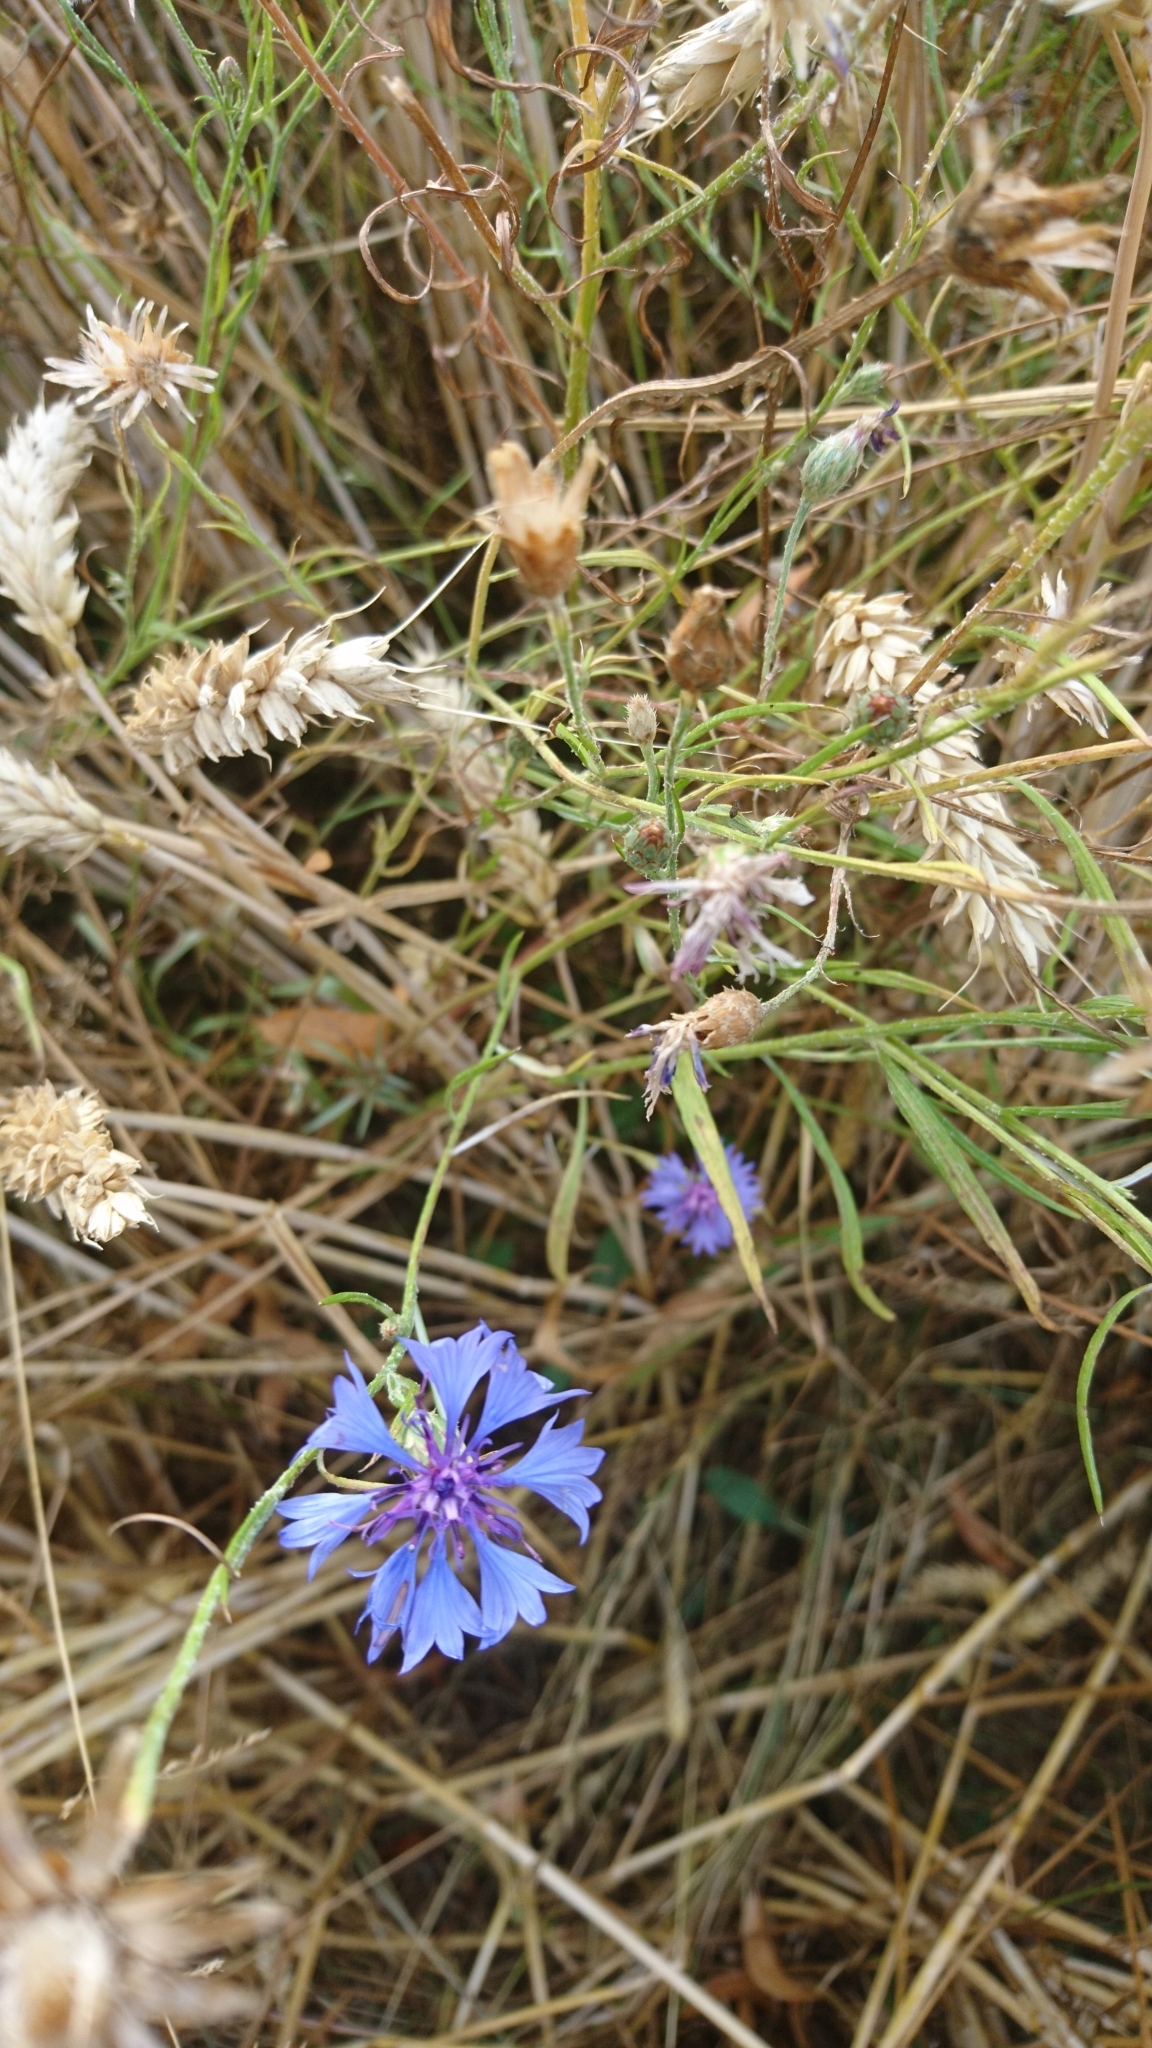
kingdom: Plantae
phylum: Tracheophyta
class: Magnoliopsida
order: Asterales
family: Asteraceae
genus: Centaurea
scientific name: Centaurea cyanus
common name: Cornflower
